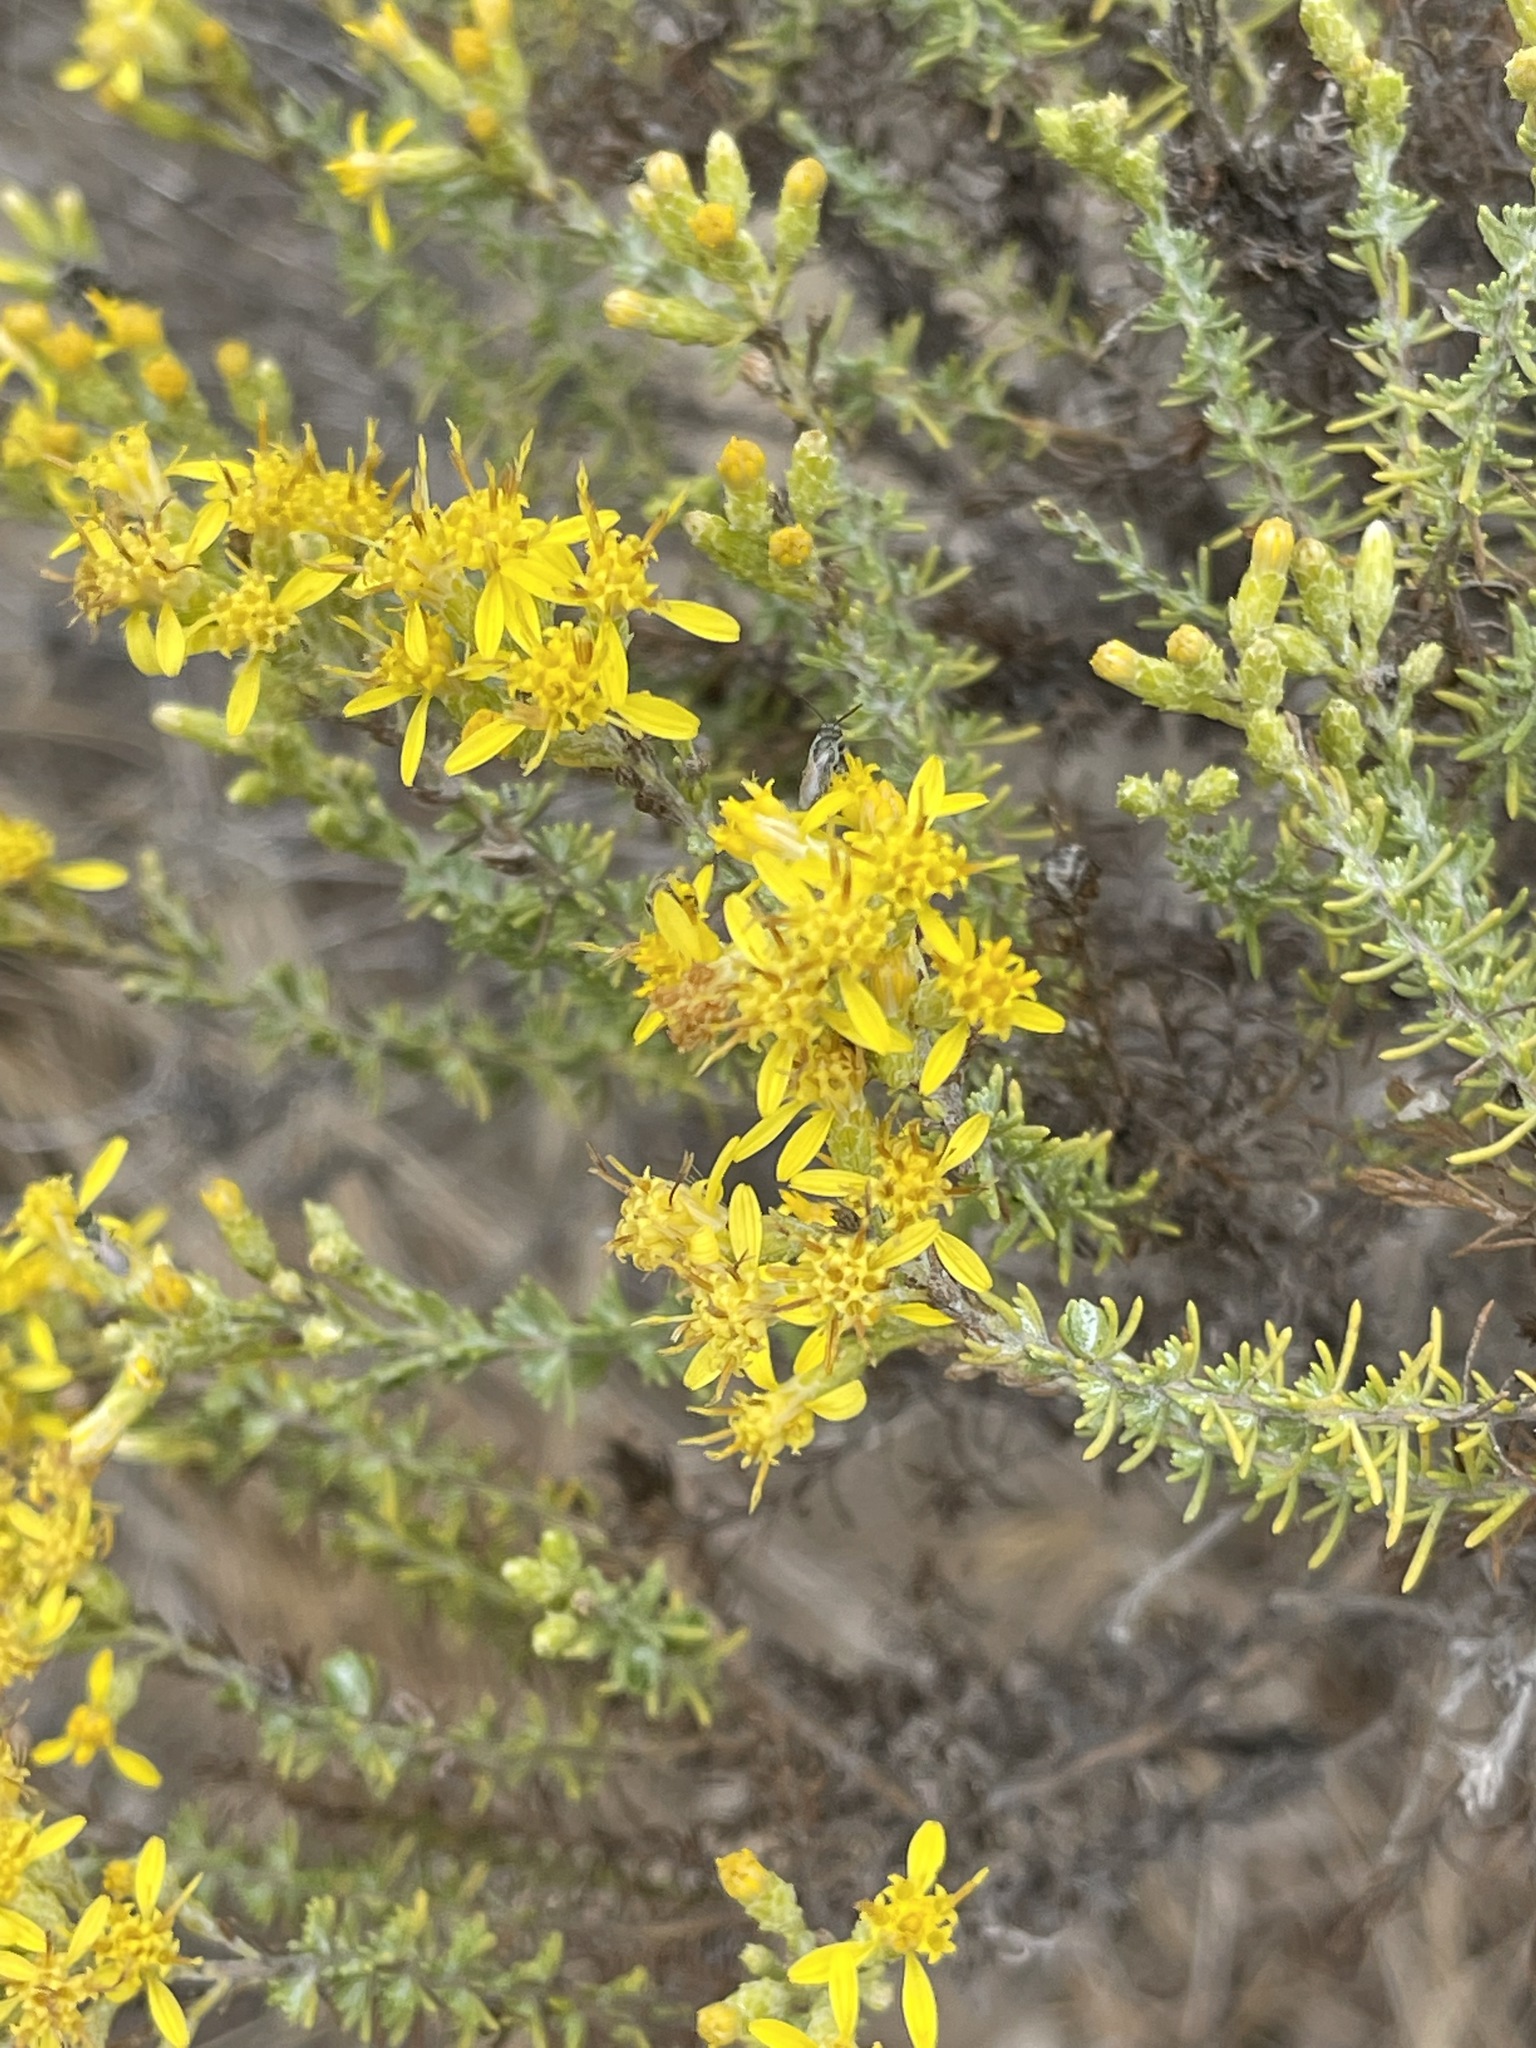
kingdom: Plantae
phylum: Tracheophyta
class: Magnoliopsida
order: Asterales
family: Asteraceae
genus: Ericameria
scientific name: Ericameria ericoides
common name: California goldenbush
